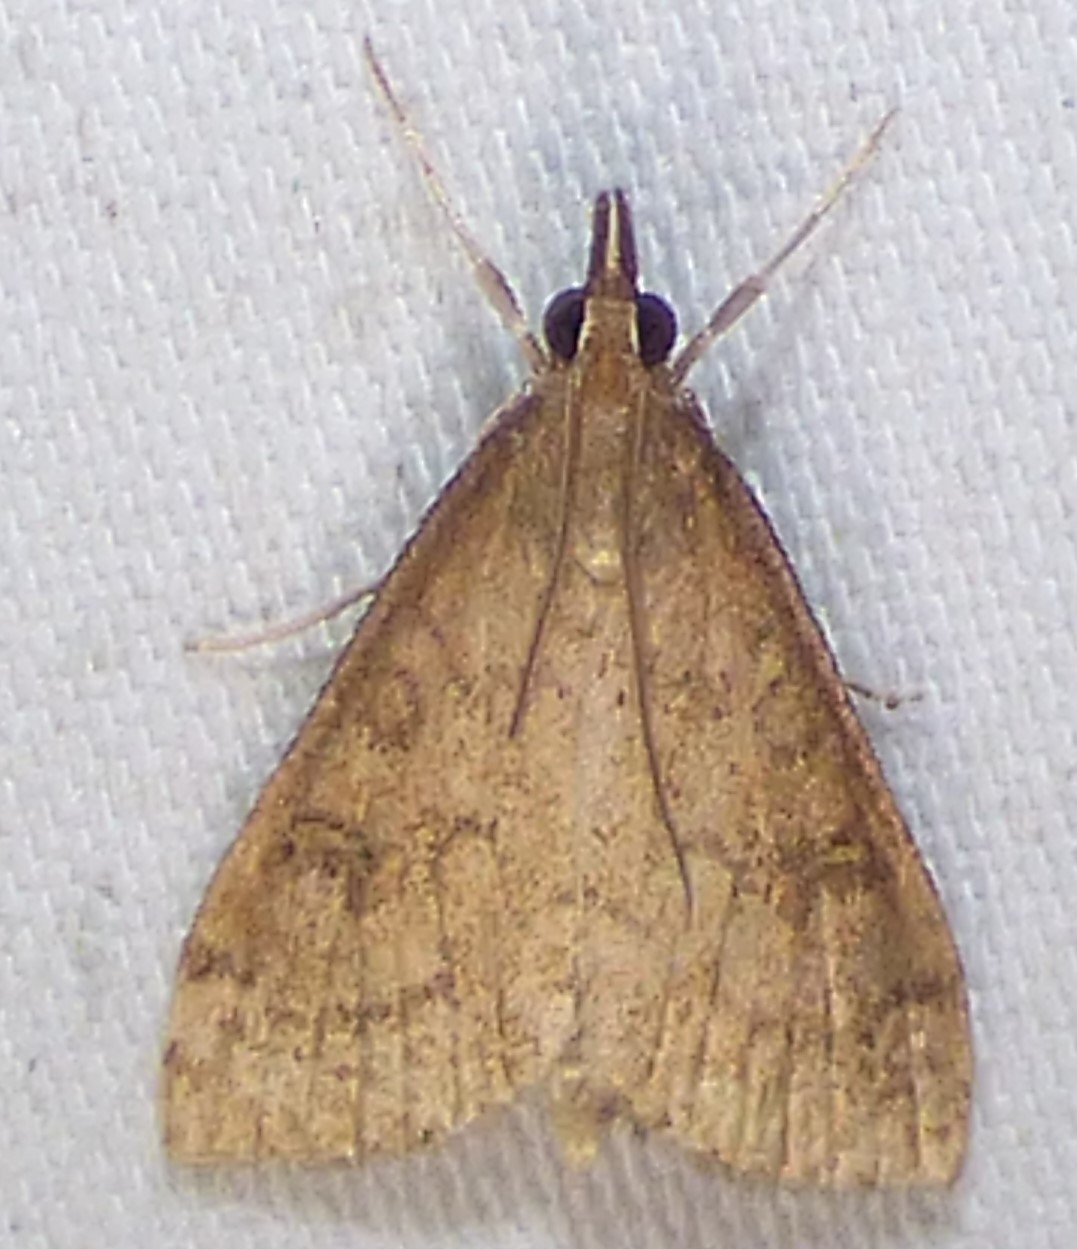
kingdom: Animalia
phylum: Arthropoda
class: Insecta
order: Lepidoptera
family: Crambidae
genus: Udea
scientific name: Udea rubigalis
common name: Celery leaftier moth
